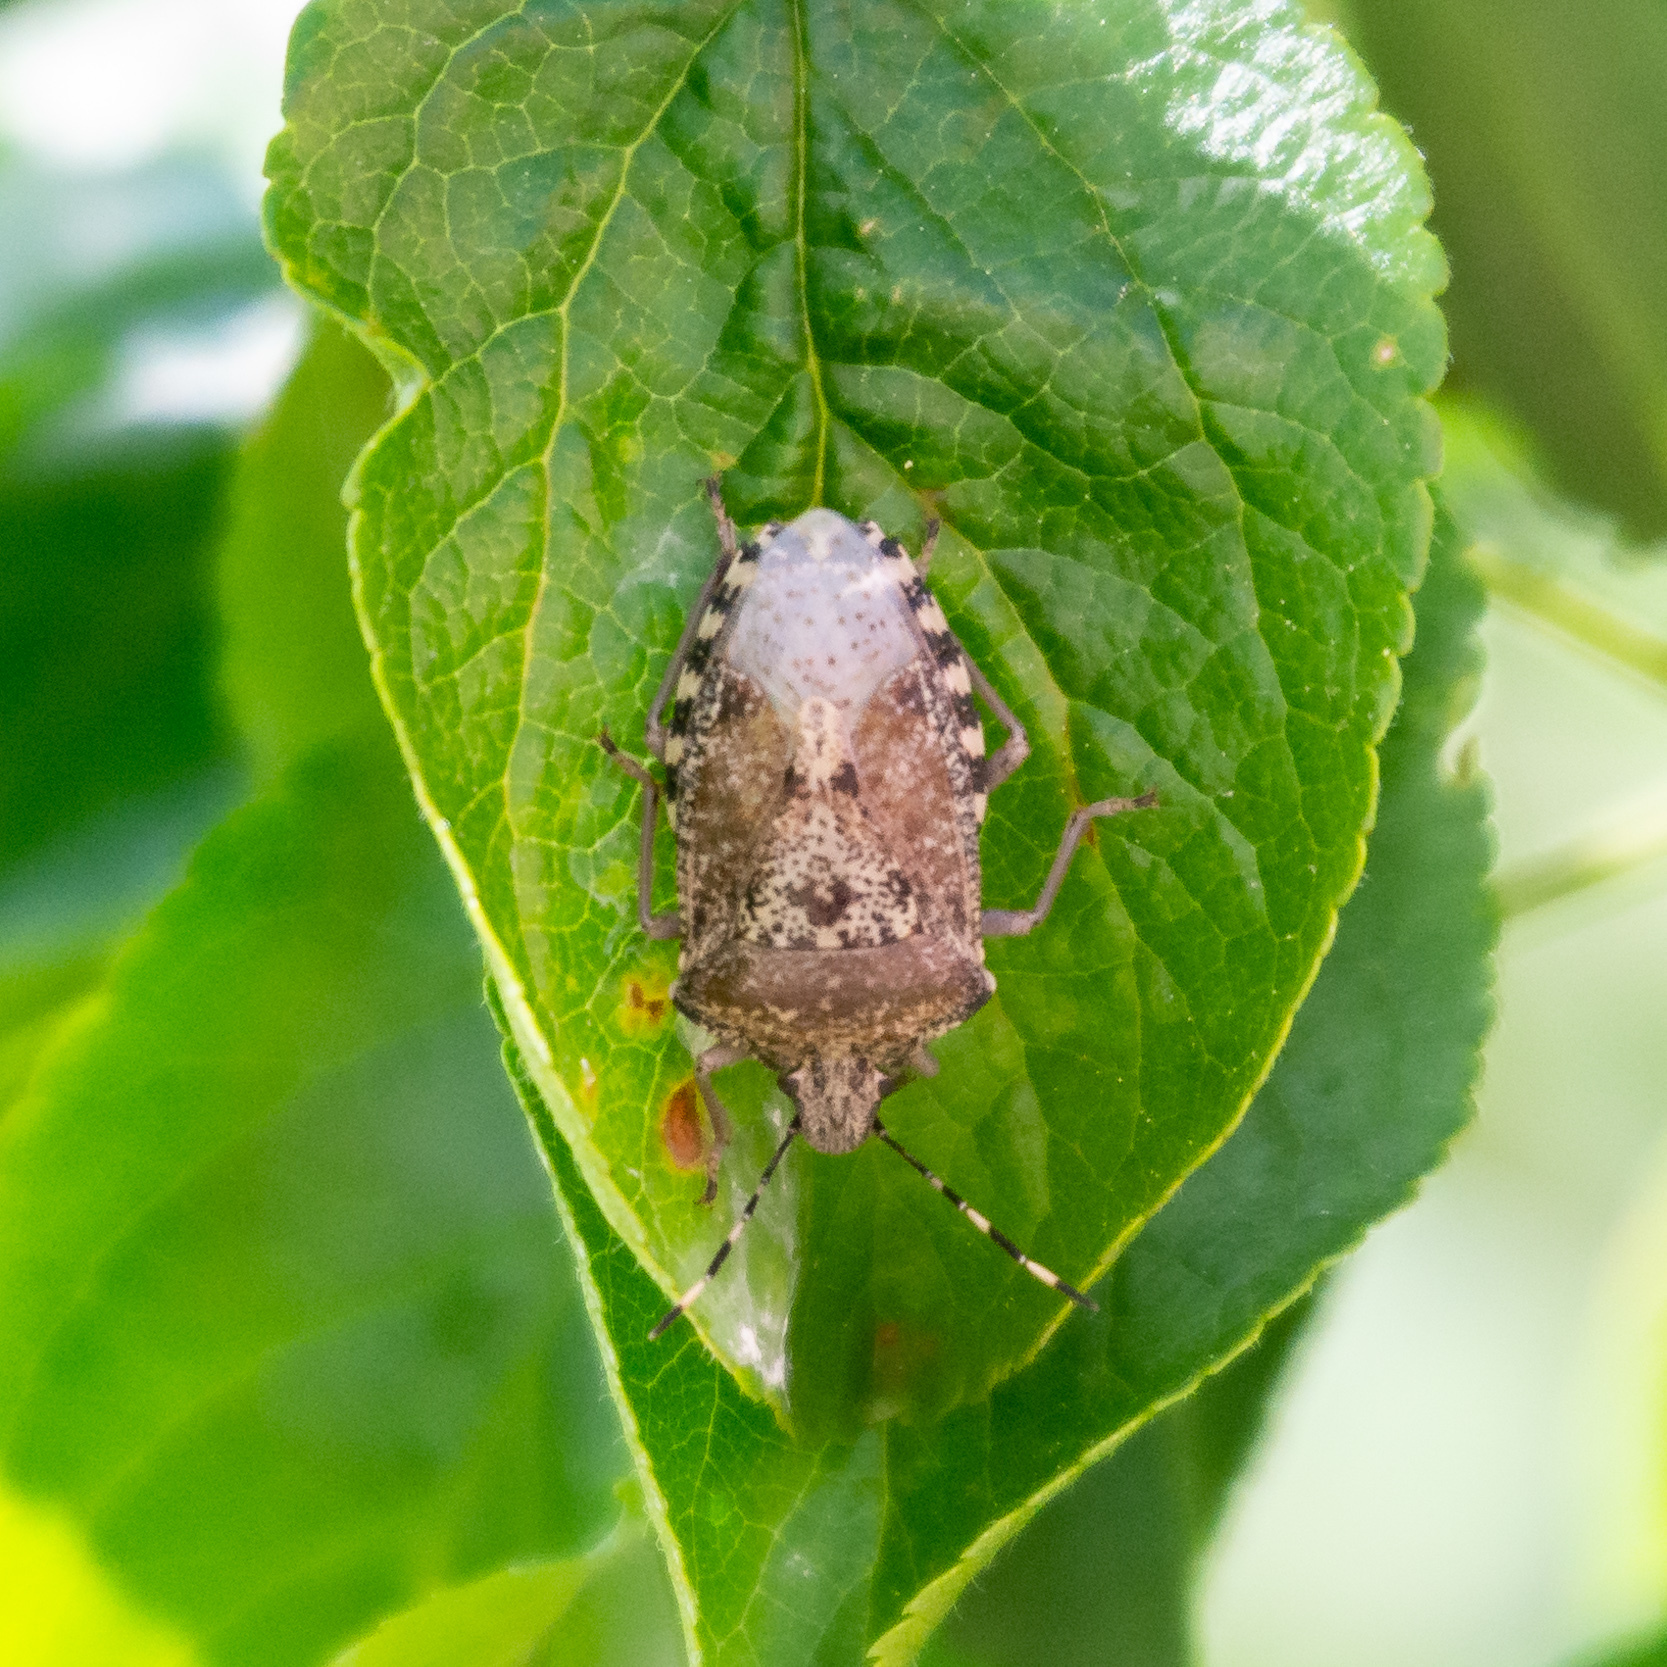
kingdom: Animalia
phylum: Arthropoda
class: Insecta
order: Hemiptera
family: Pentatomidae
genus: Rhaphigaster
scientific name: Rhaphigaster nebulosa
